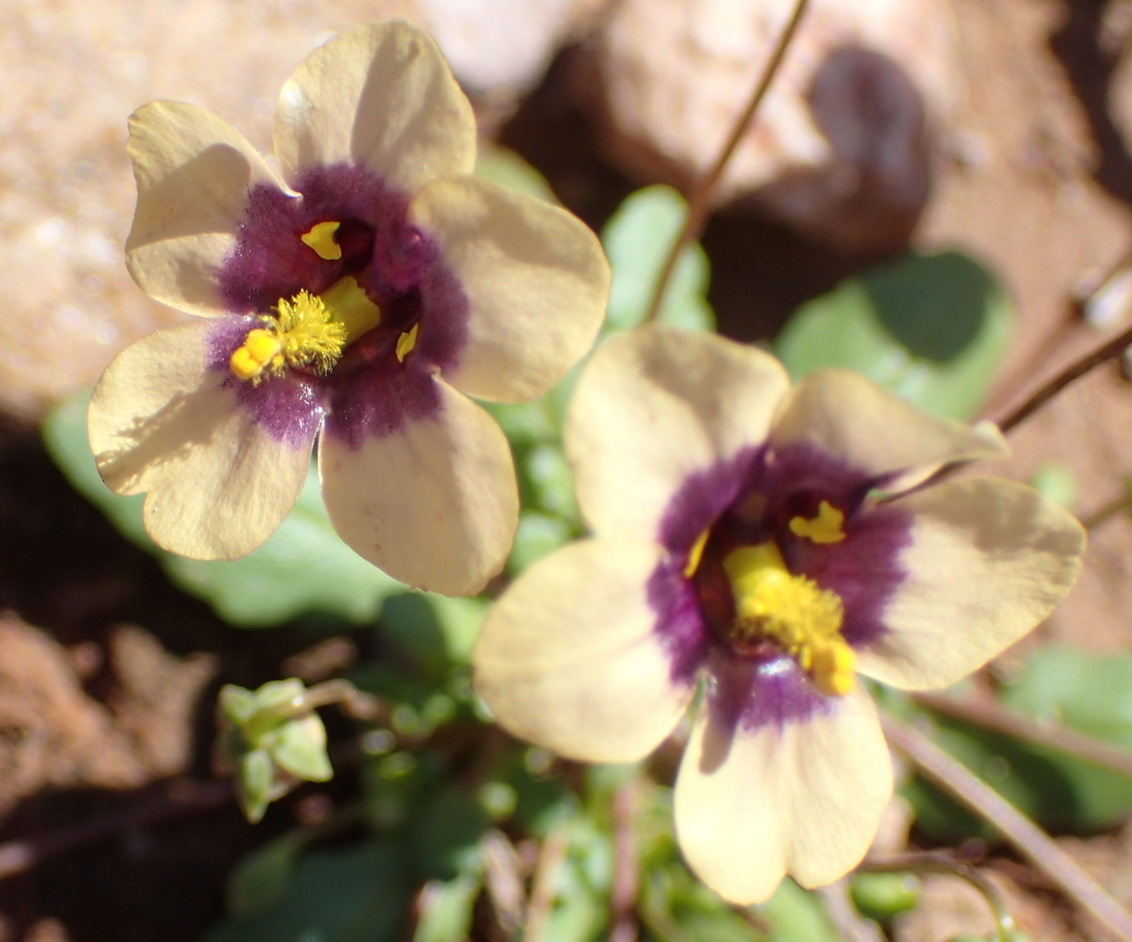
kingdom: Plantae
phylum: Tracheophyta
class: Magnoliopsida
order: Lamiales
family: Scrophulariaceae
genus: Diascia
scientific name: Diascia bicolor
